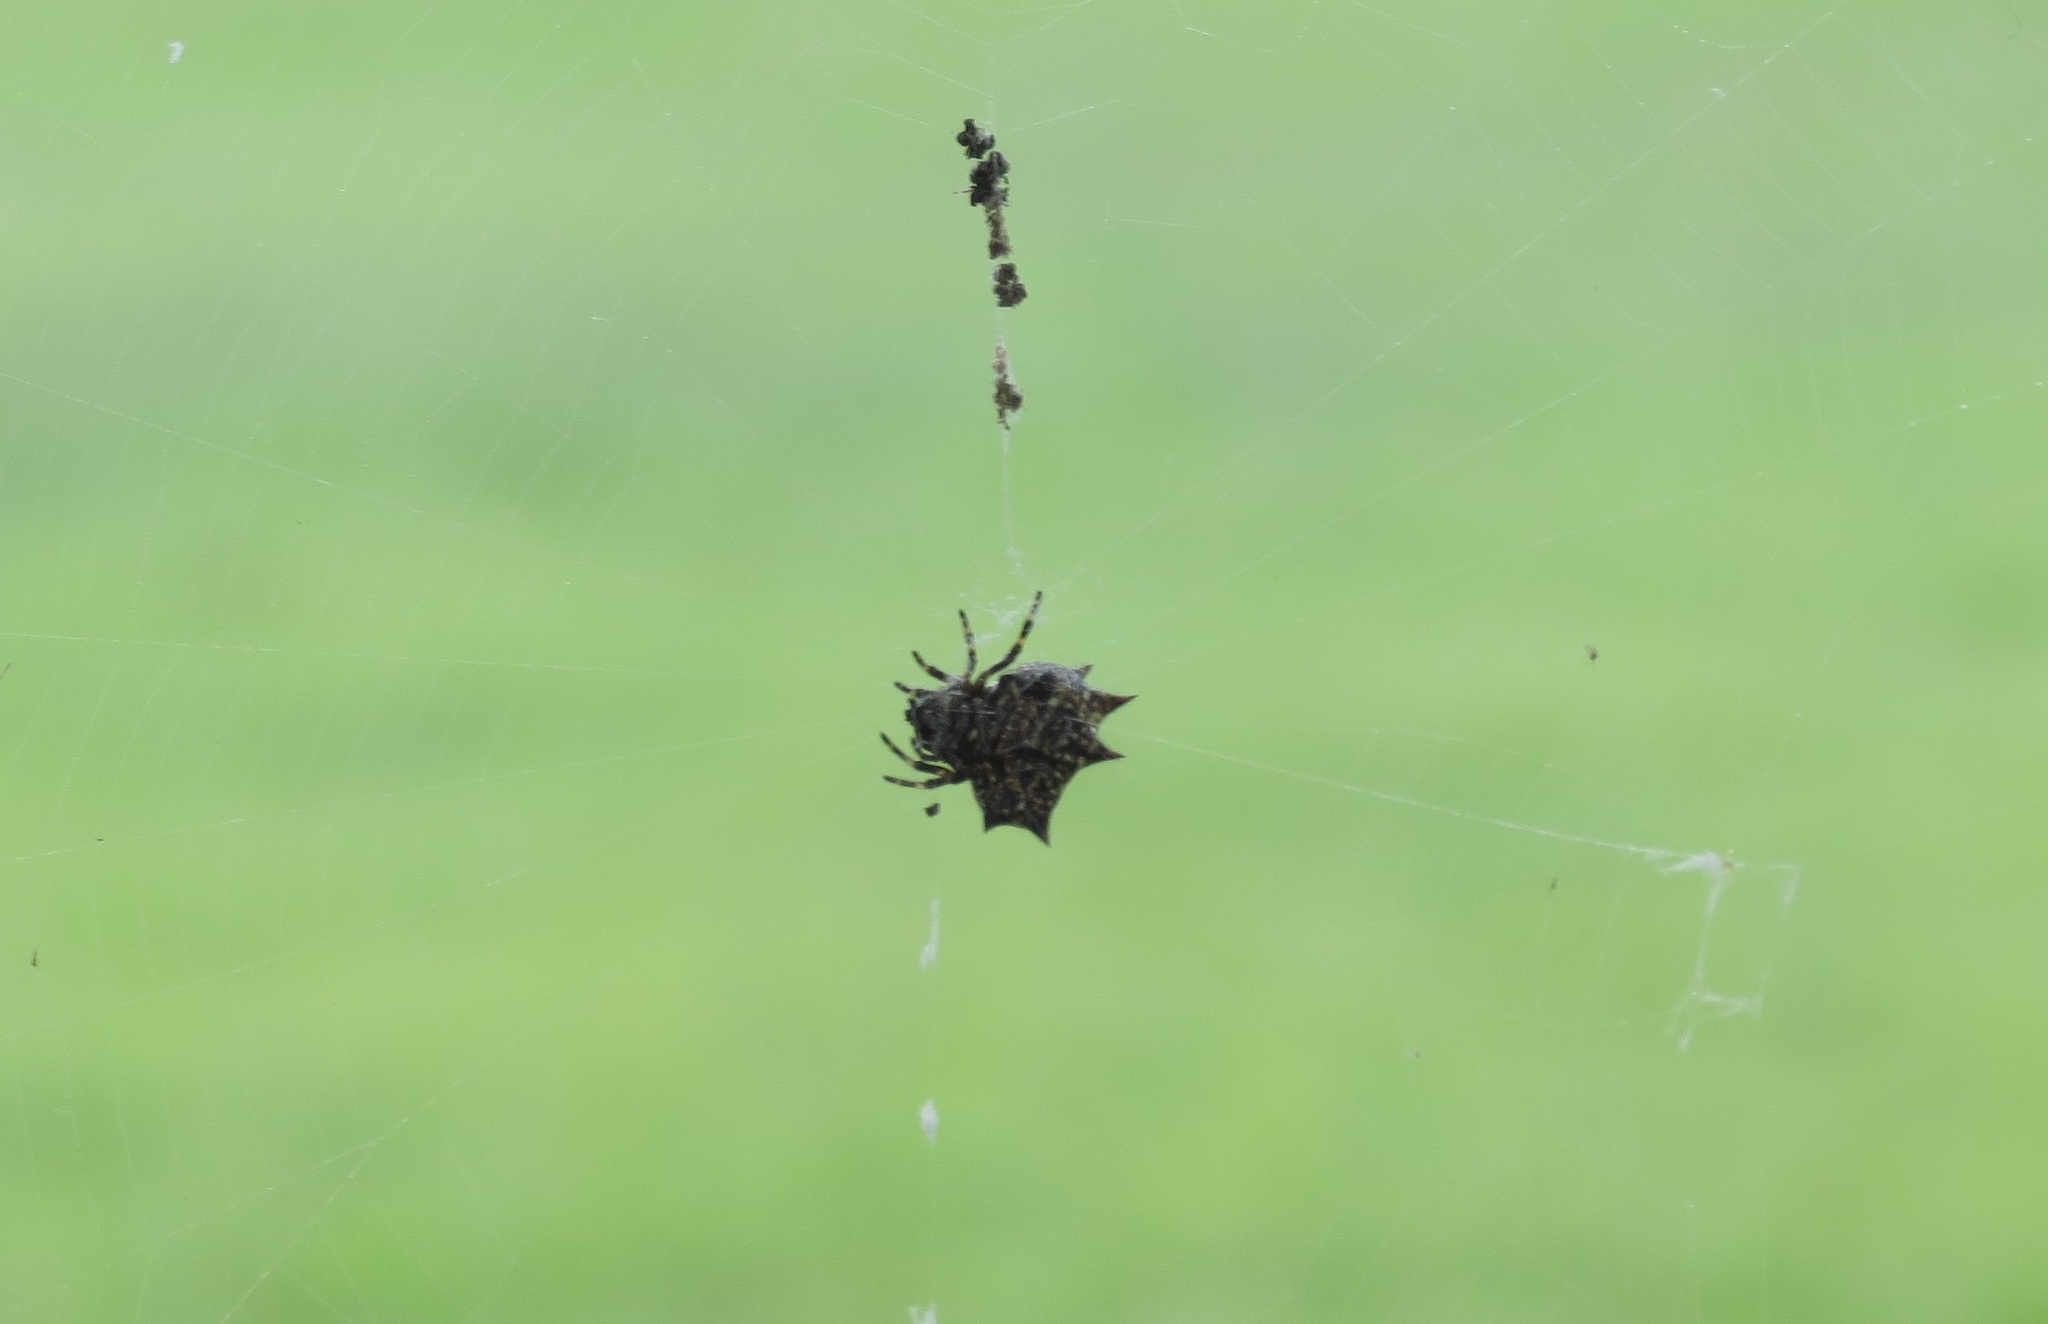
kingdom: Animalia
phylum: Arthropoda
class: Arachnida
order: Araneae
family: Araneidae
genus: Gasteracantha
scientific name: Gasteracantha cancriformis
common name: Orb weavers
